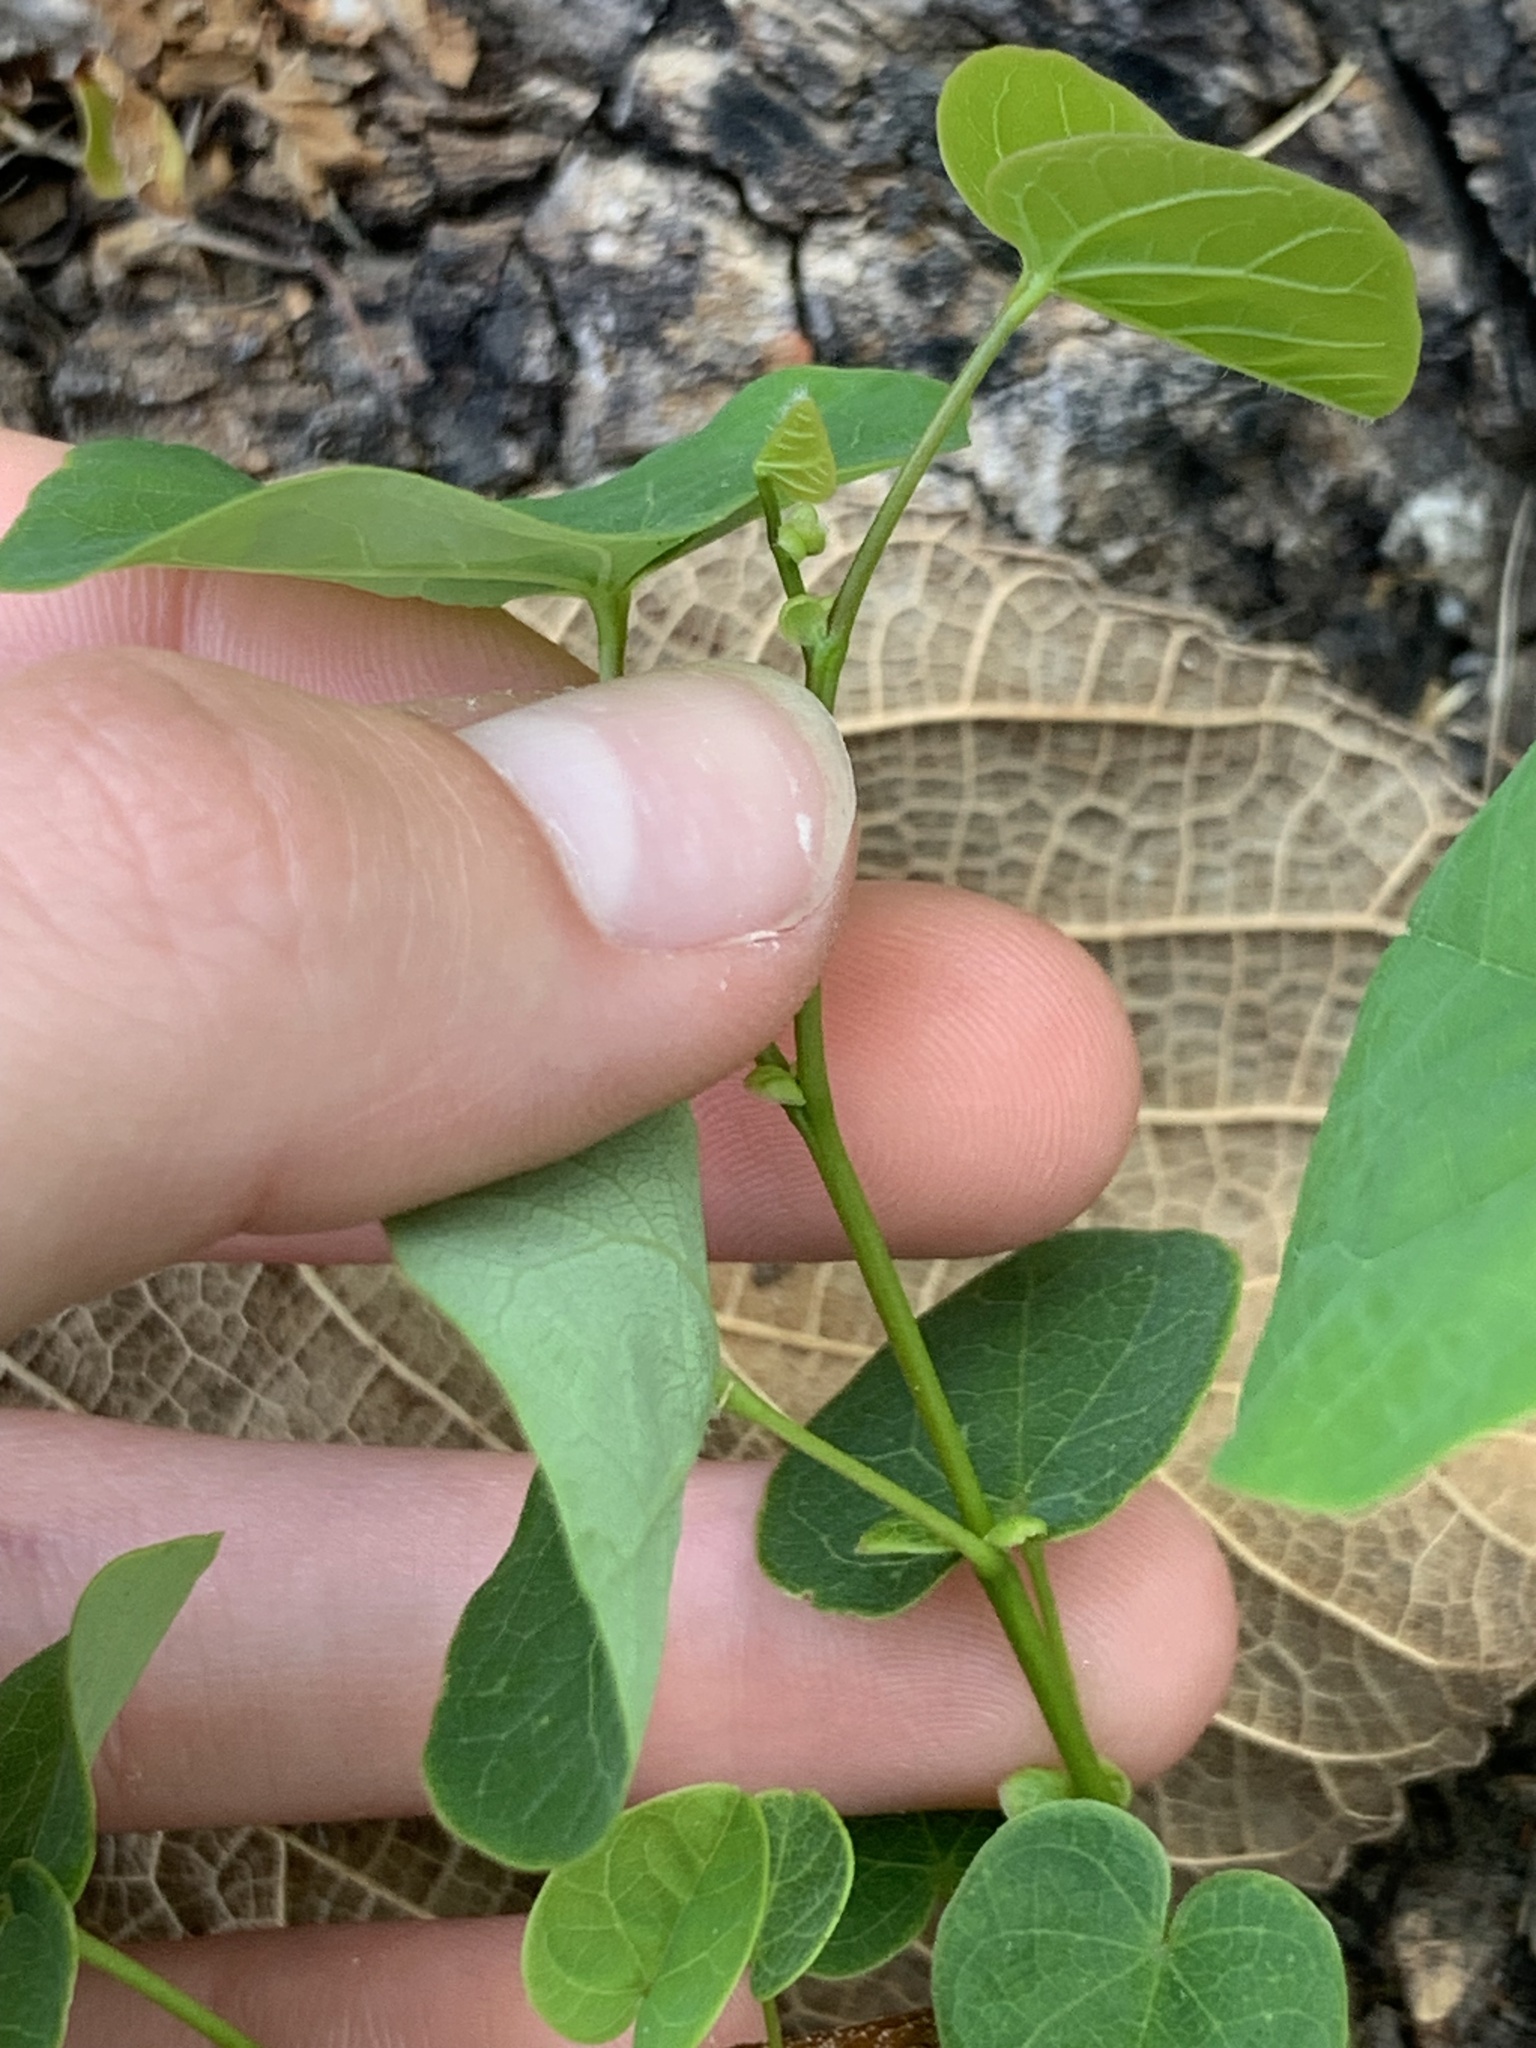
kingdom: Plantae
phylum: Tracheophyta
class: Magnoliopsida
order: Fabales
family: Fabaceae
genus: Cercis
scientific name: Cercis canadensis
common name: Eastern redbud
